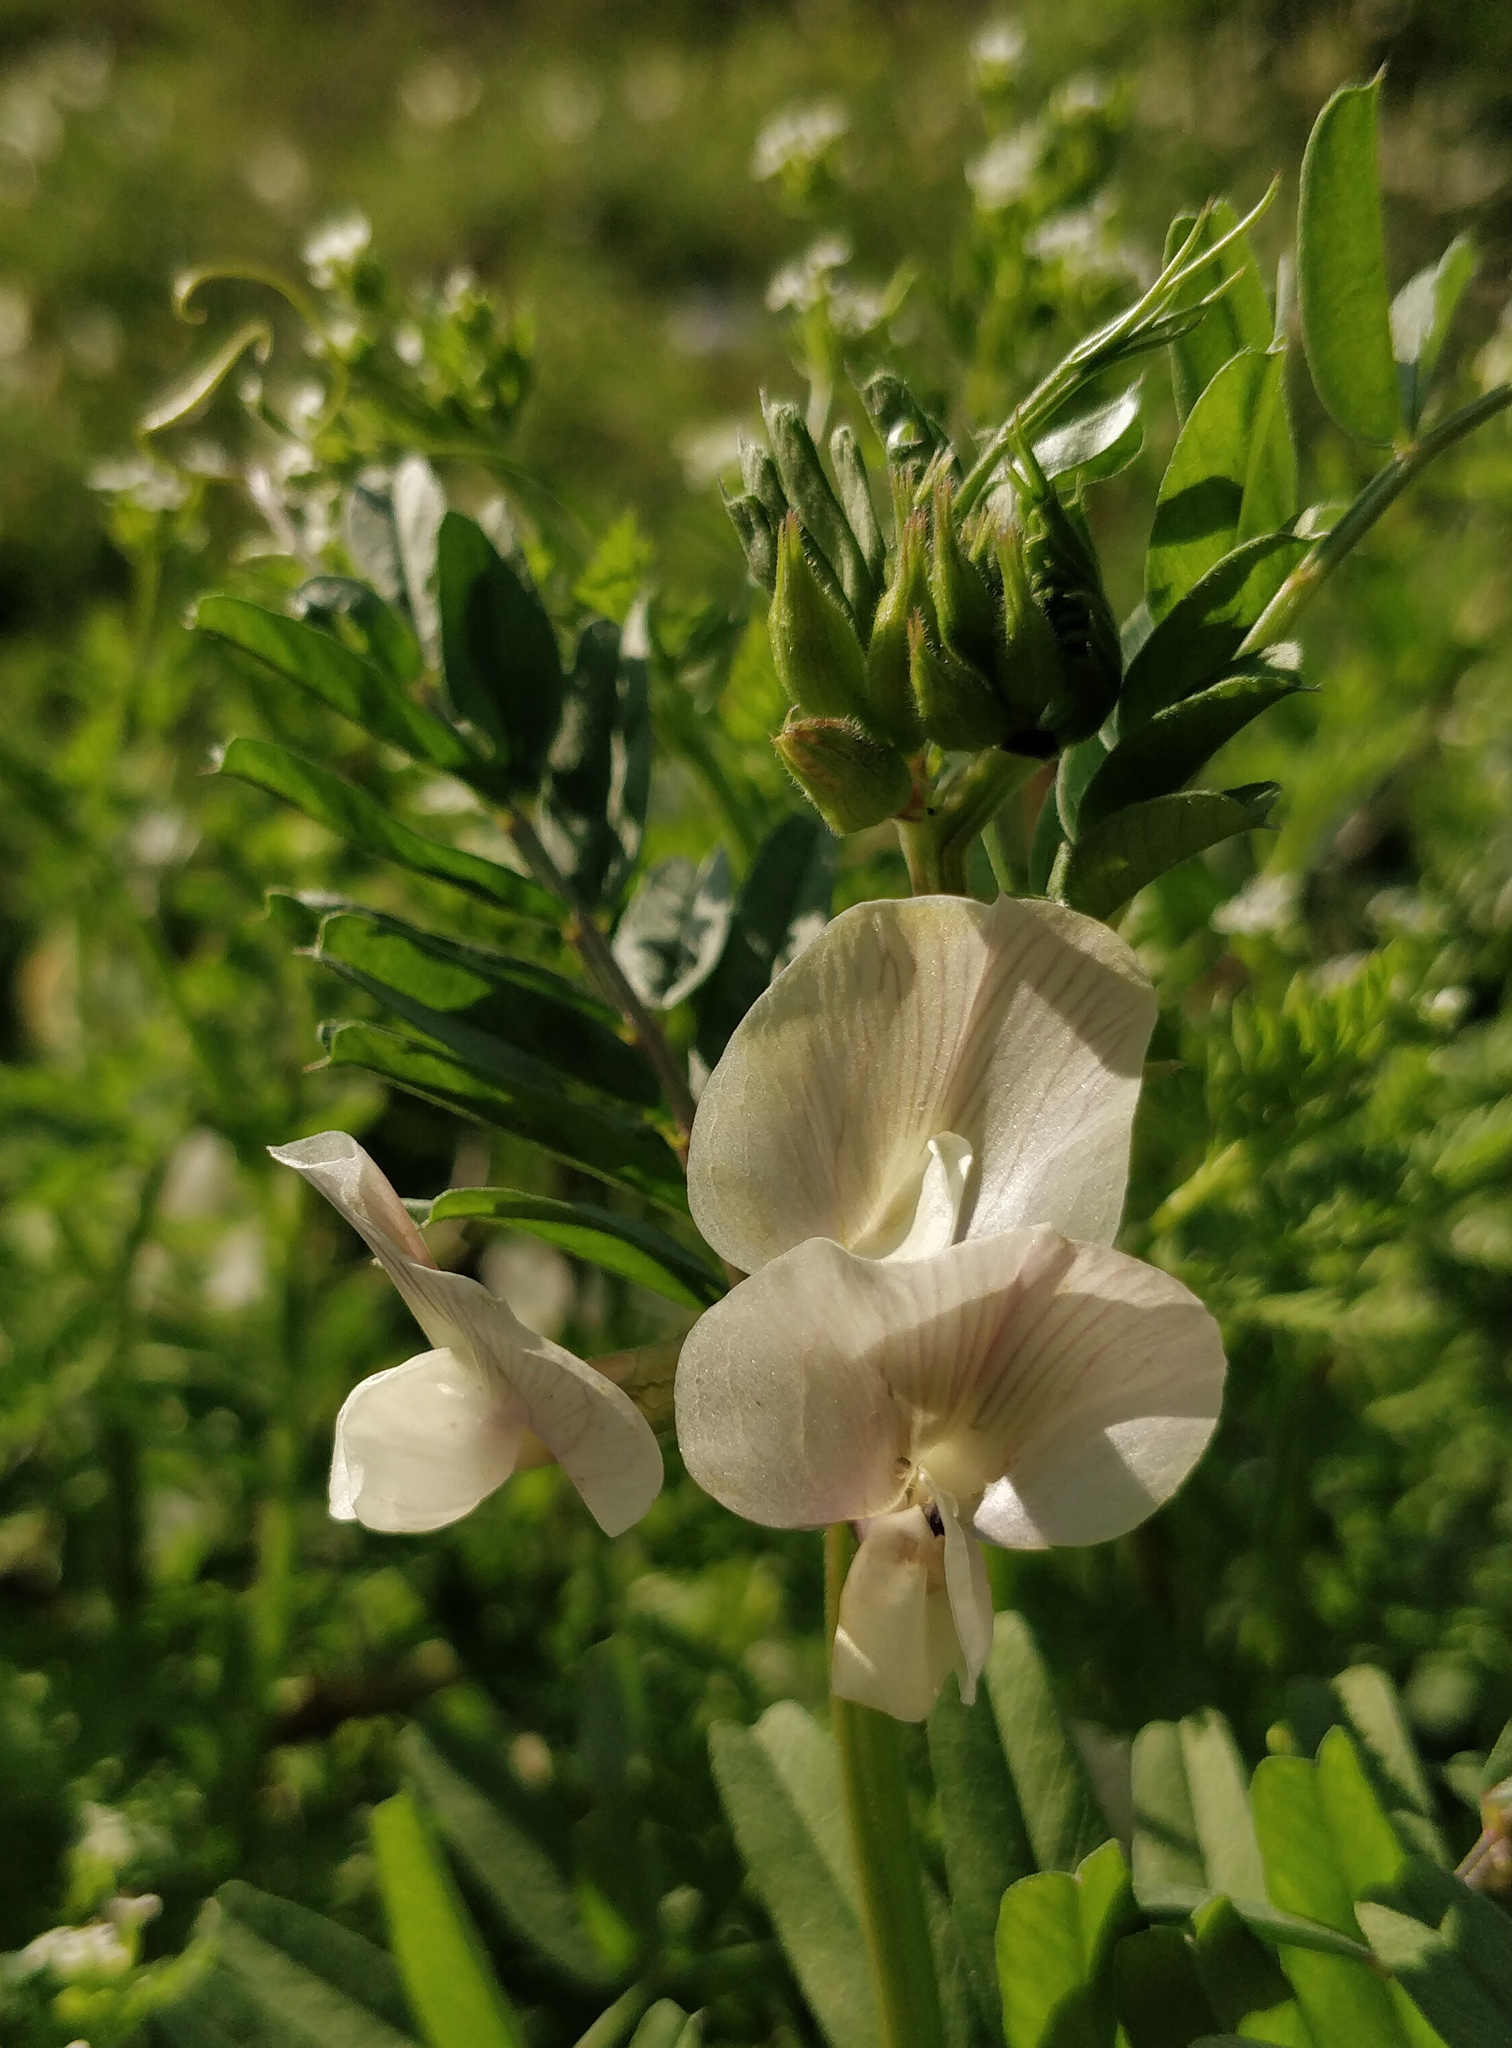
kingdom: Plantae
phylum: Tracheophyta
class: Magnoliopsida
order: Fabales
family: Fabaceae
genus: Vicia
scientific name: Vicia grandiflora
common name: Large yellow vetch
